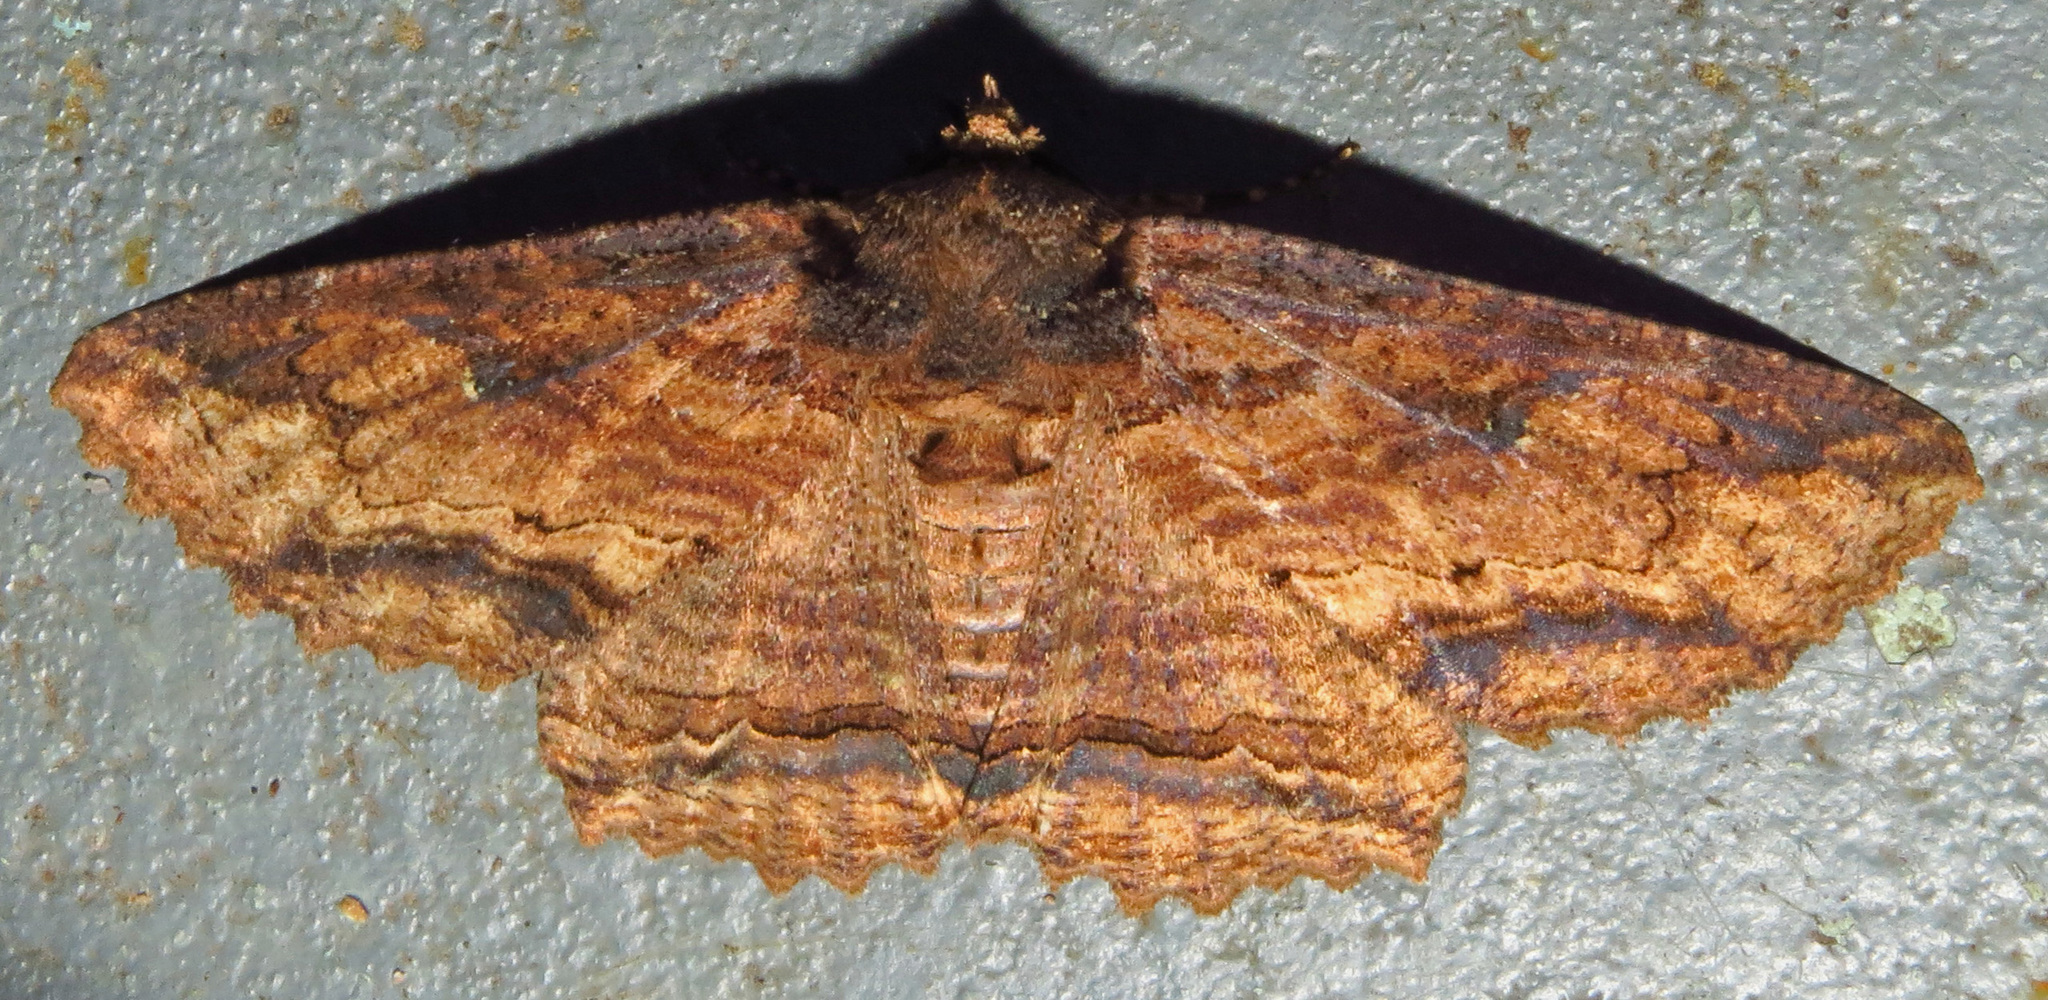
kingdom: Animalia
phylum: Arthropoda
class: Insecta
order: Lepidoptera
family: Erebidae
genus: Zale
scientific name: Zale lunata
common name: Lunate zale moth
